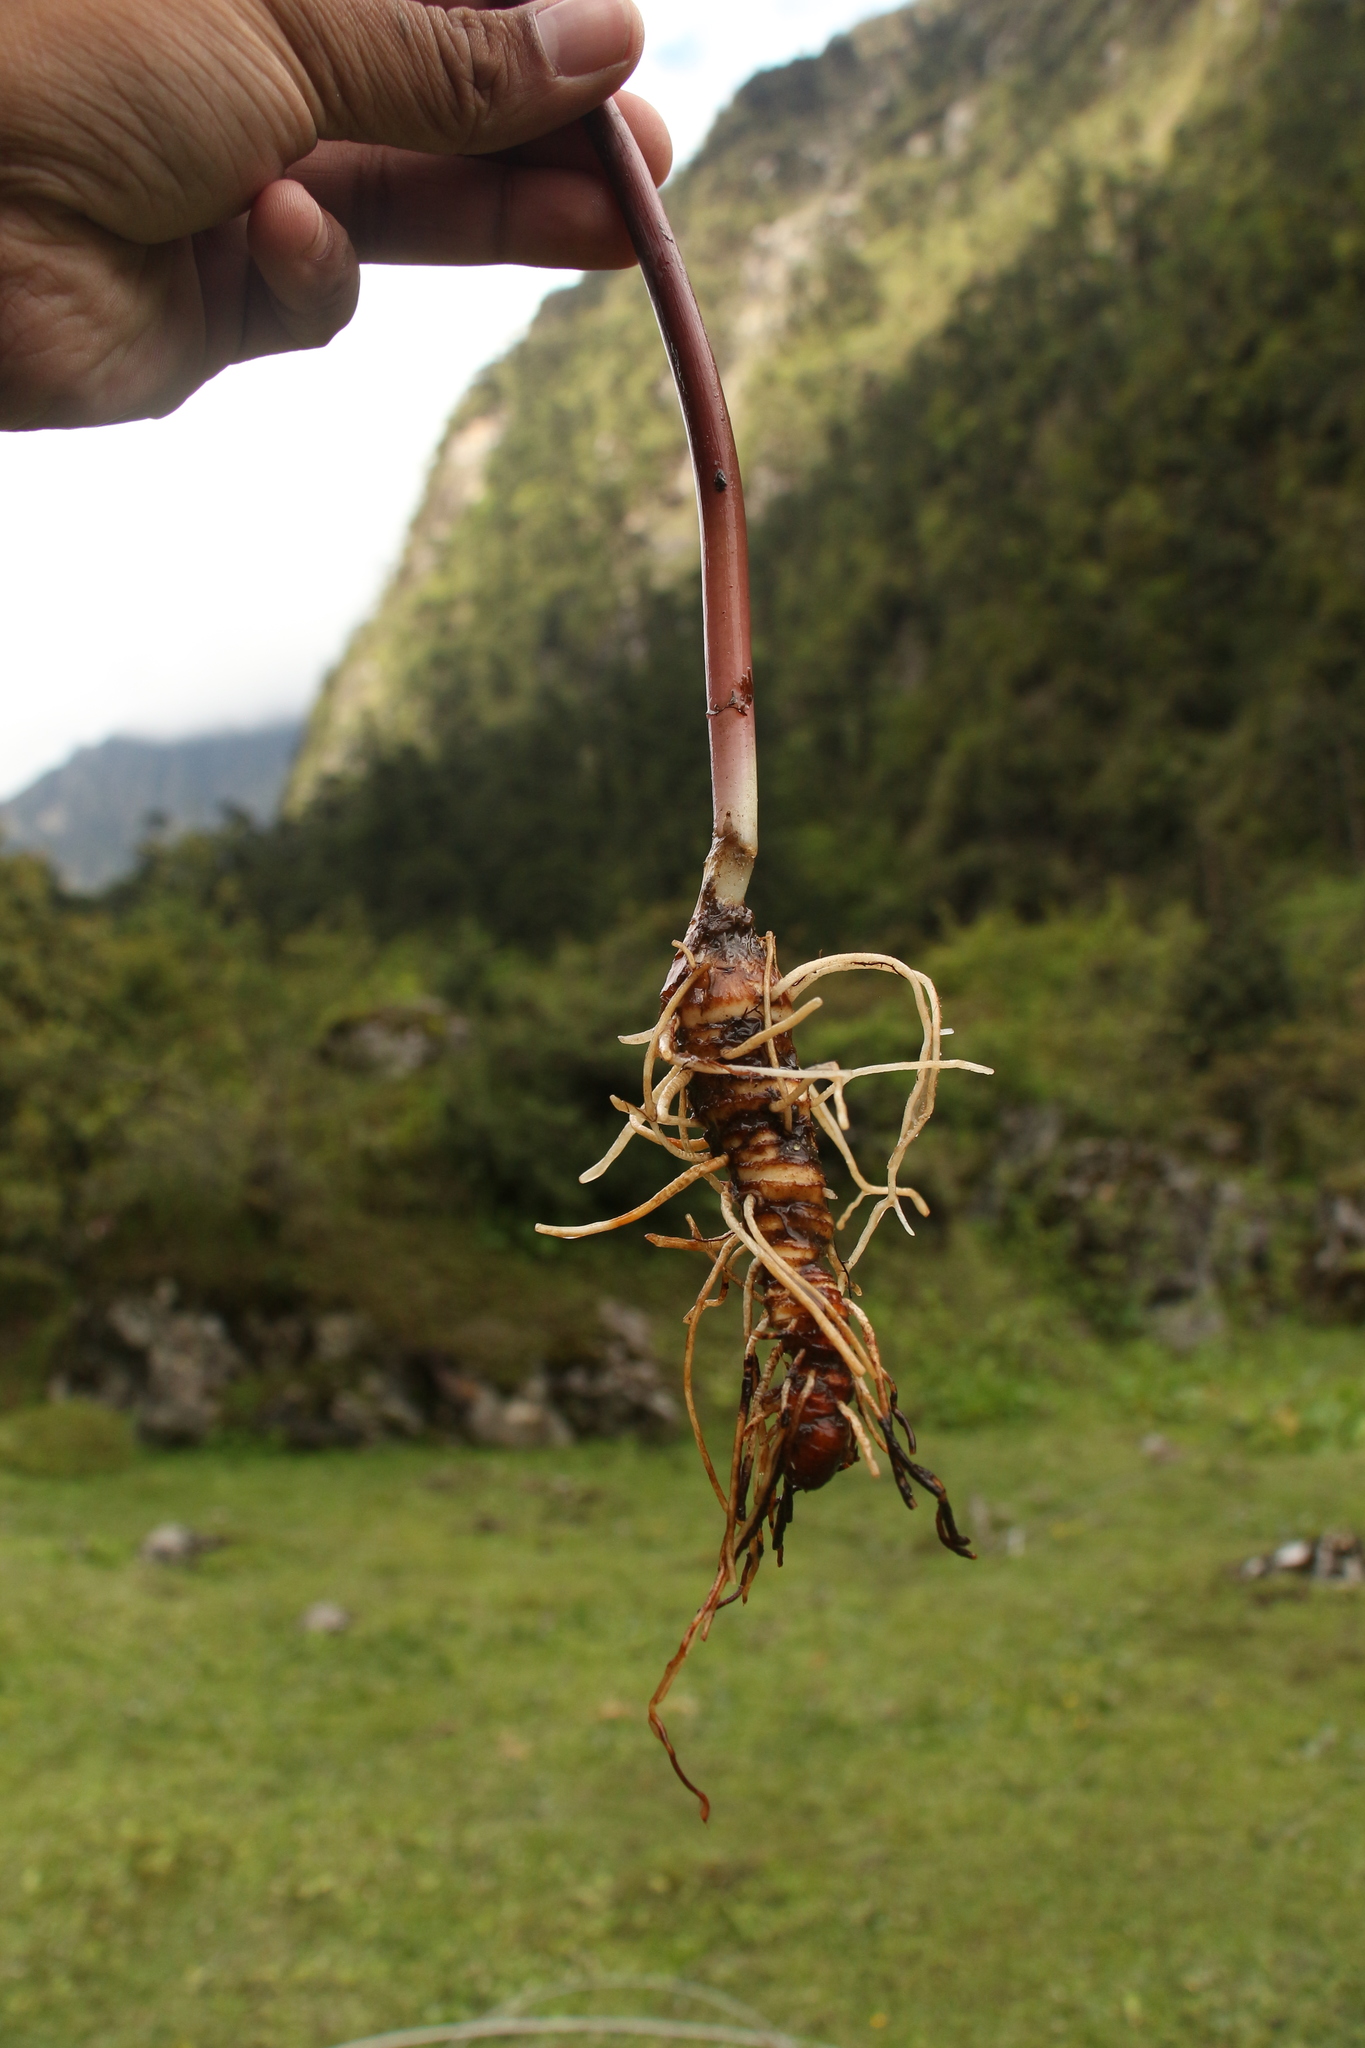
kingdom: Plantae
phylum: Tracheophyta
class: Liliopsida
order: Liliales
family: Melanthiaceae
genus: Paris
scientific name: Paris polyphylla
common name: Love apple
